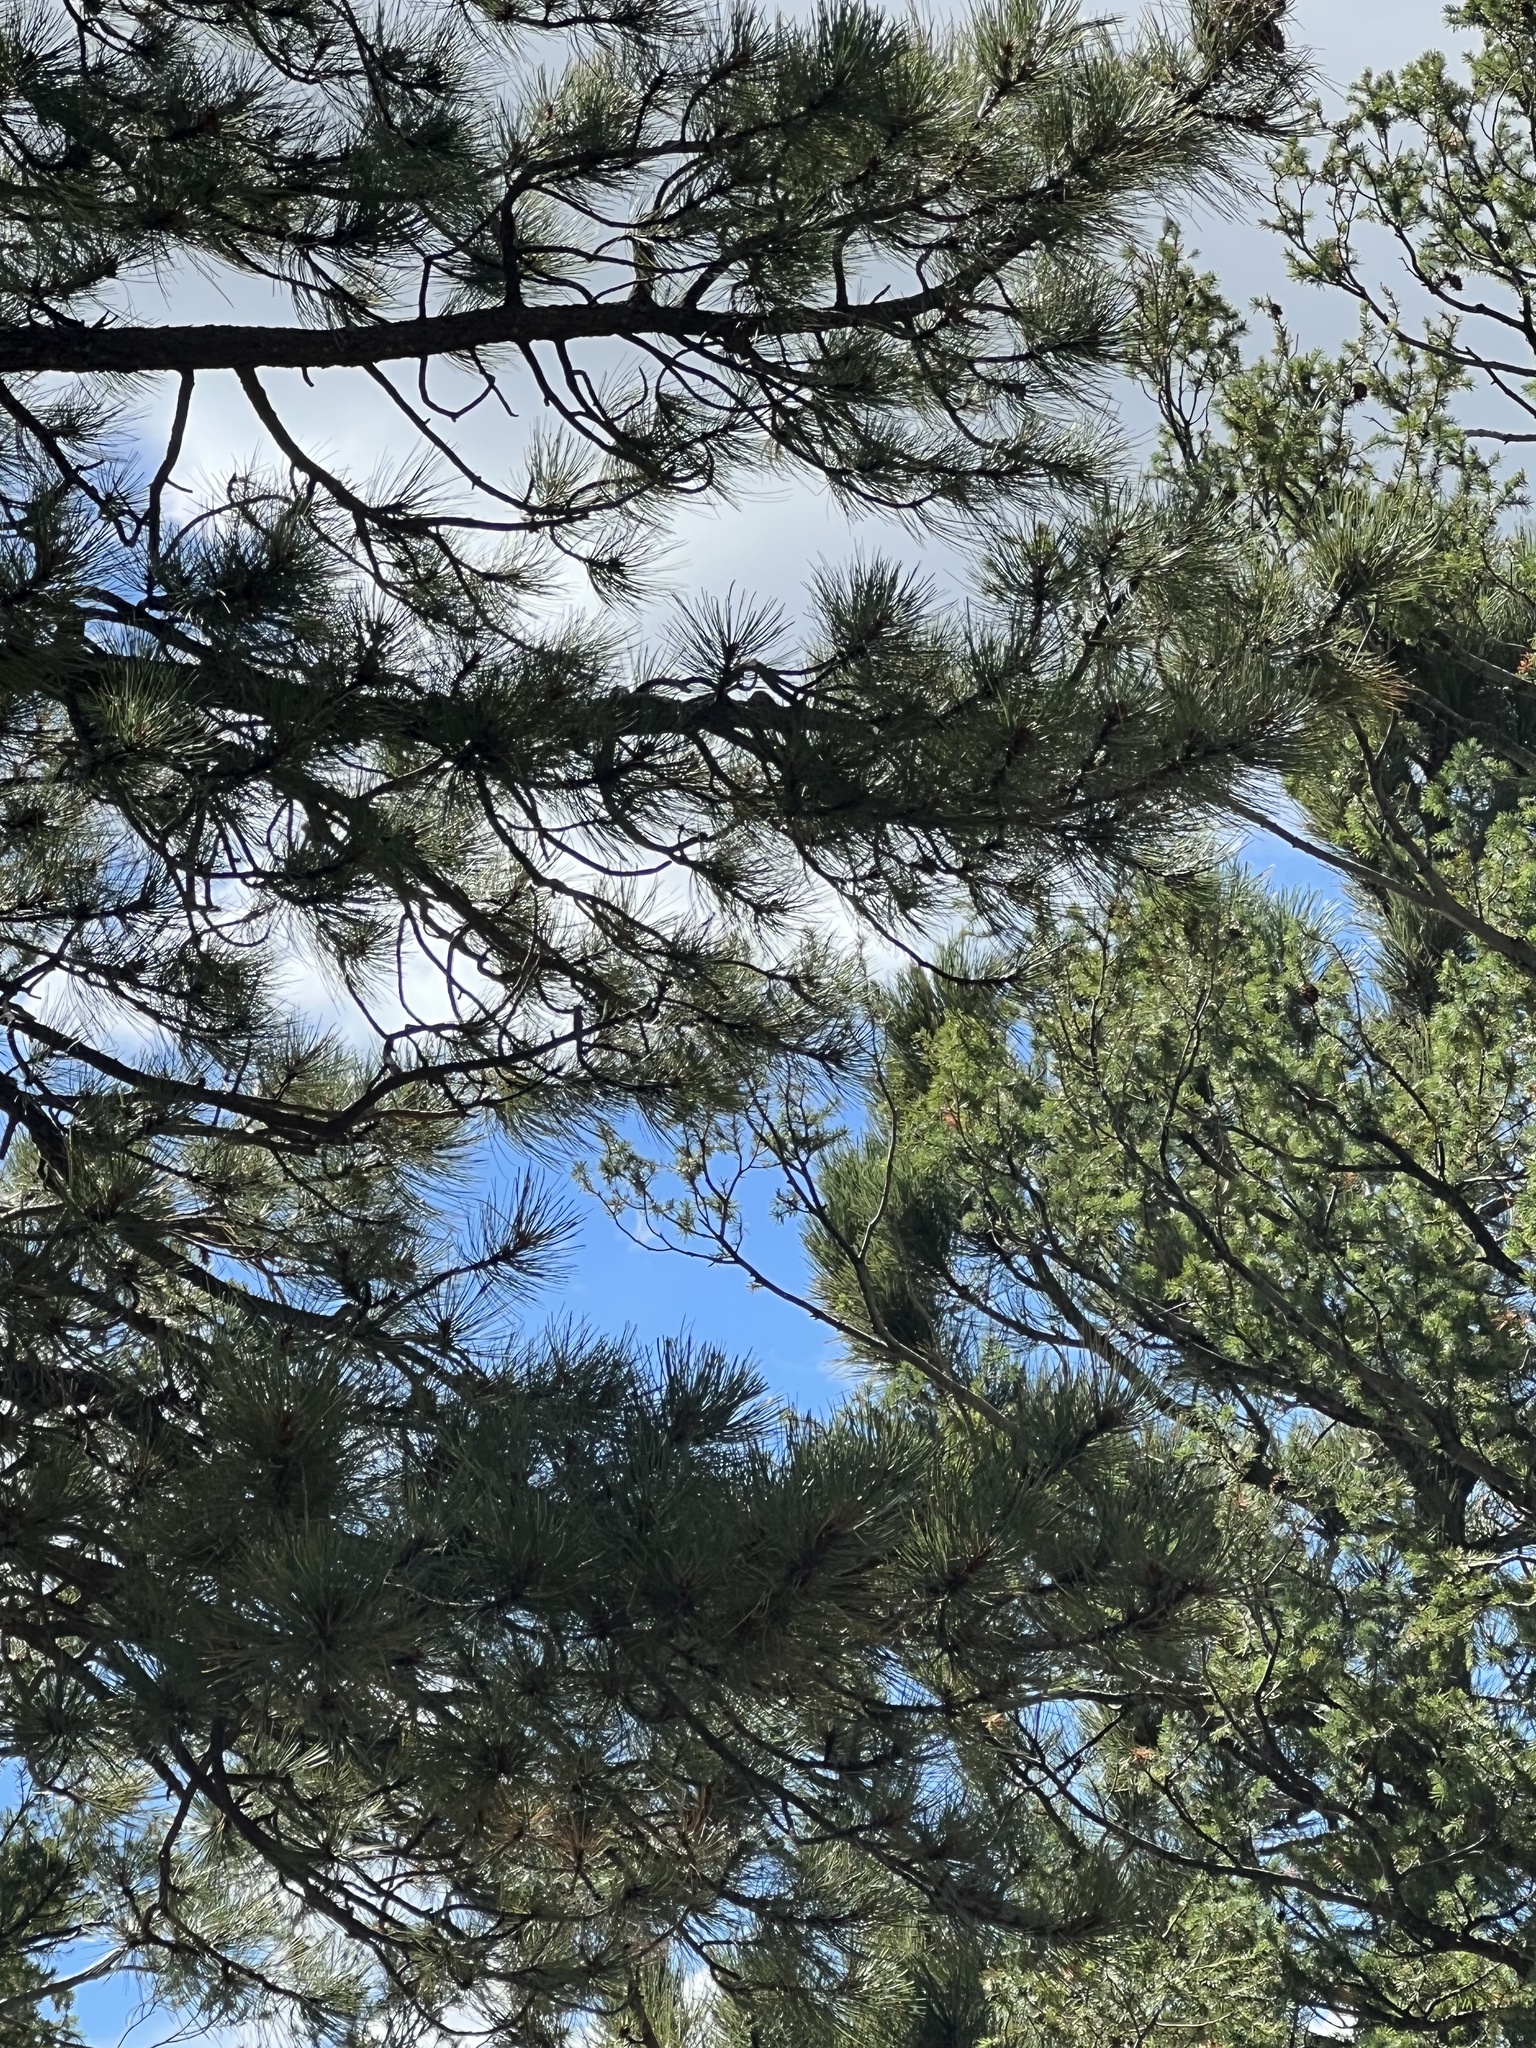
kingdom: Plantae
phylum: Tracheophyta
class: Pinopsida
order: Pinales
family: Pinaceae
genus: Pinus
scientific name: Pinus ponderosa
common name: Western yellow-pine
